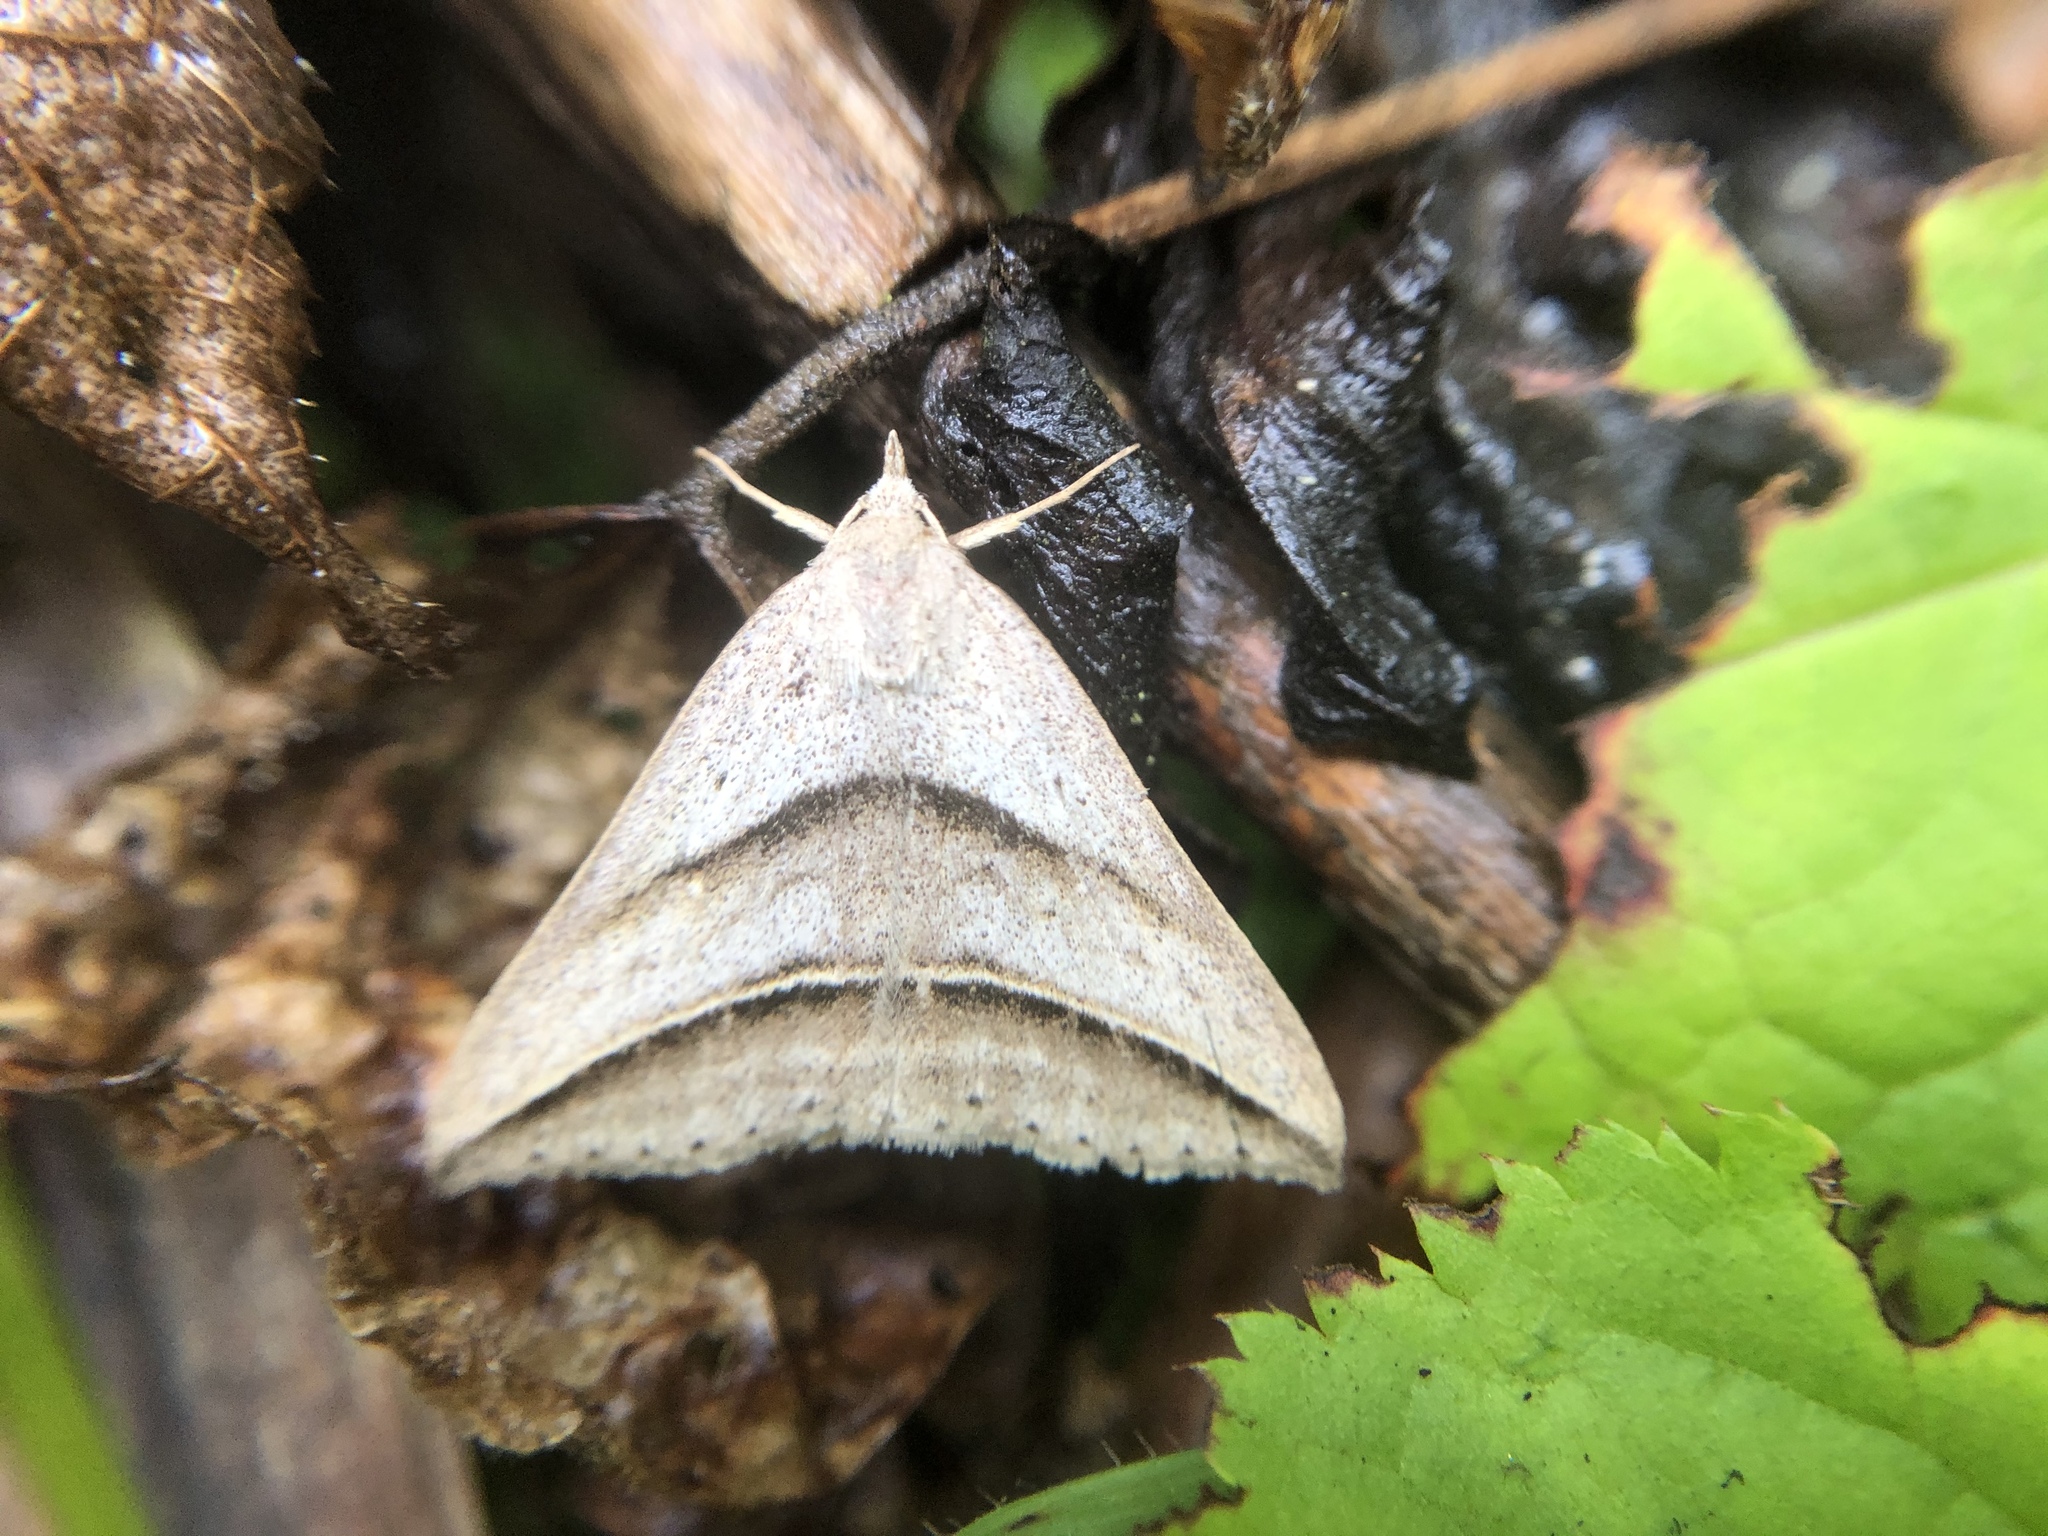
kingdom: Animalia
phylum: Arthropoda
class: Insecta
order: Lepidoptera
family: Erebidae
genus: Blasticorhinus
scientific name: Blasticorhinus bifasciata
